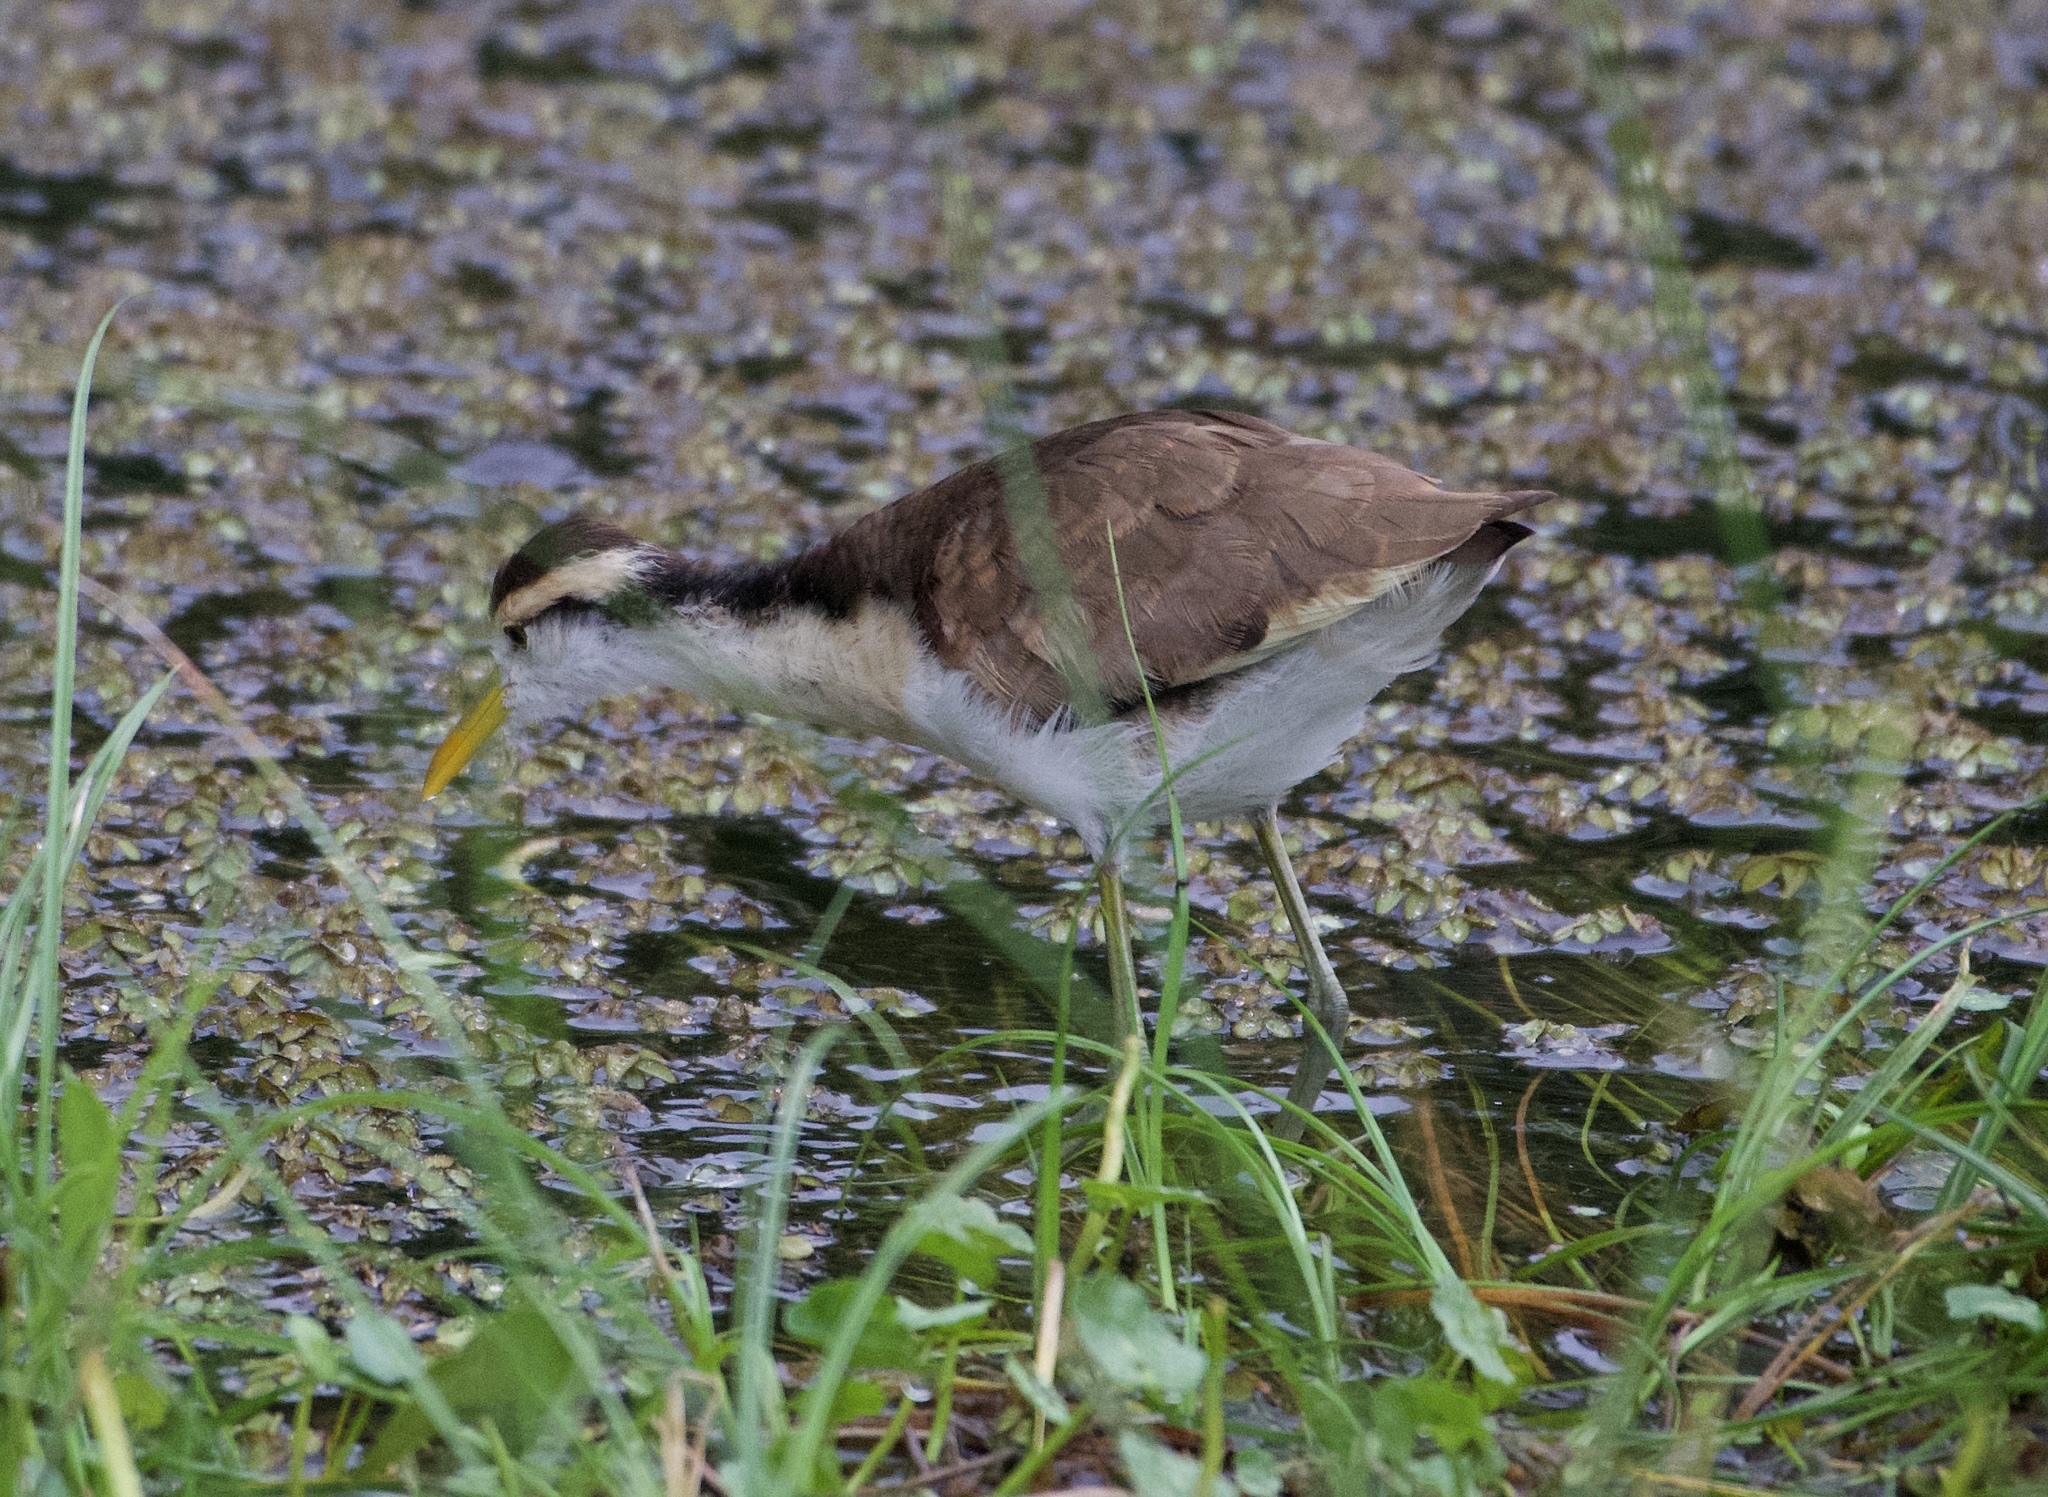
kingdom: Animalia
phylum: Chordata
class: Aves
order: Charadriiformes
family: Jacanidae
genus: Jacana
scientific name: Jacana spinosa
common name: Northern jacana
